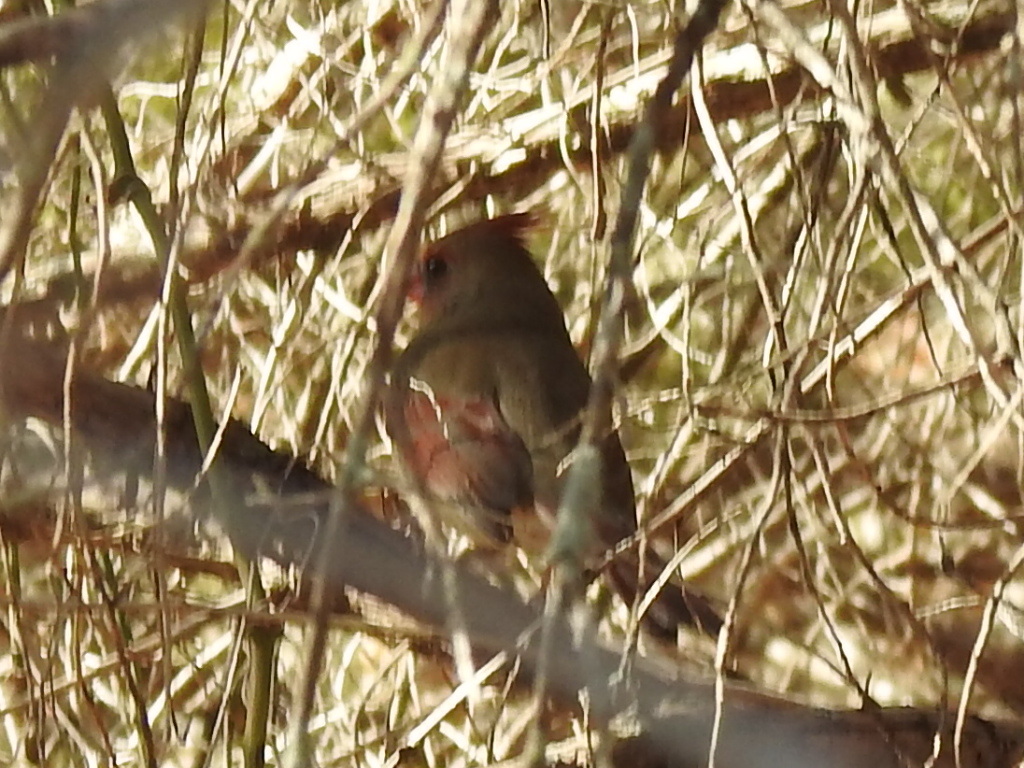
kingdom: Animalia
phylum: Chordata
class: Aves
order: Passeriformes
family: Cardinalidae
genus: Cardinalis
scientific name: Cardinalis cardinalis
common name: Northern cardinal
